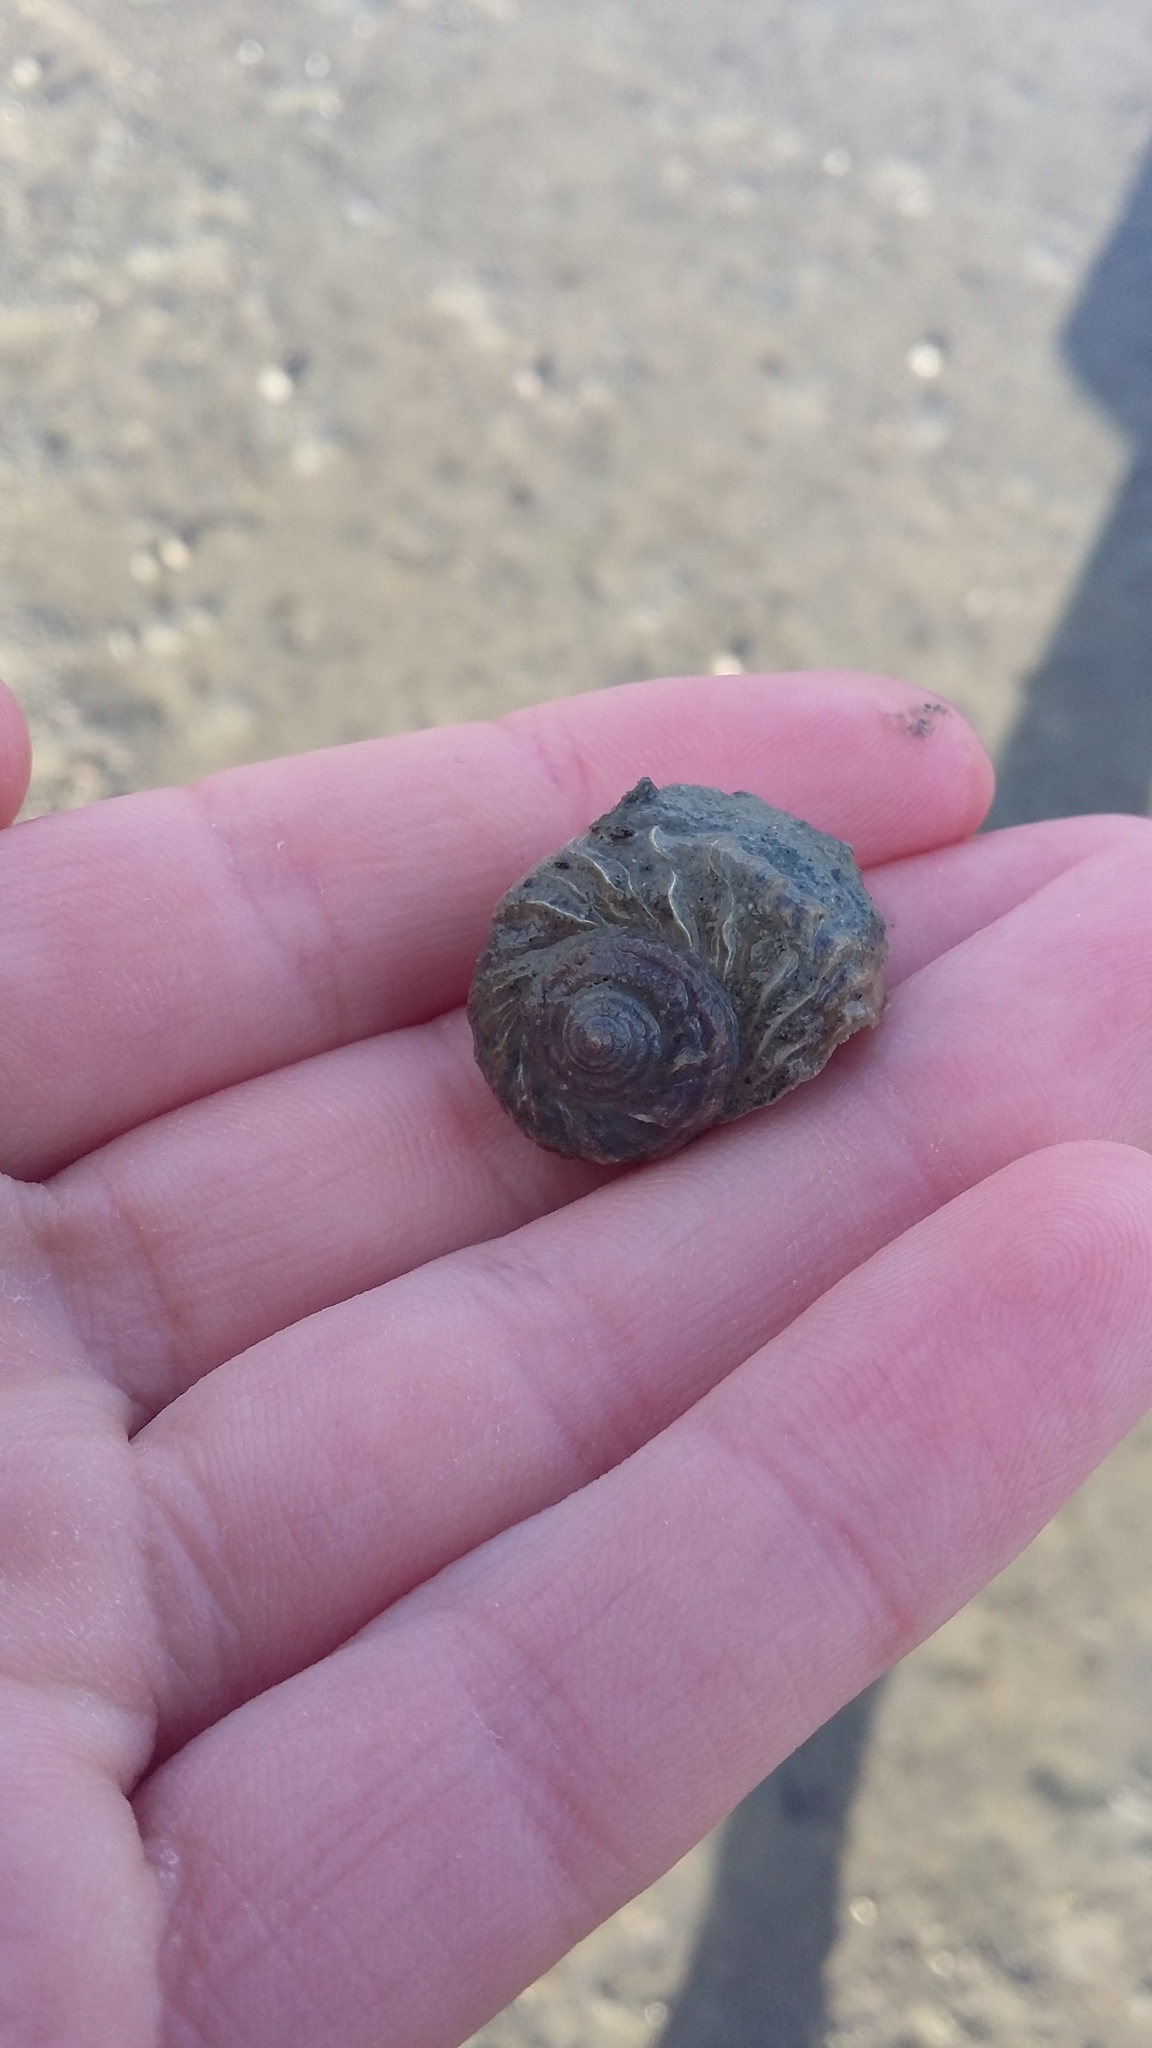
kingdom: Animalia
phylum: Mollusca
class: Gastropoda
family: Amphibolidae
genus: Amphibola
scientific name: Amphibola crenata
